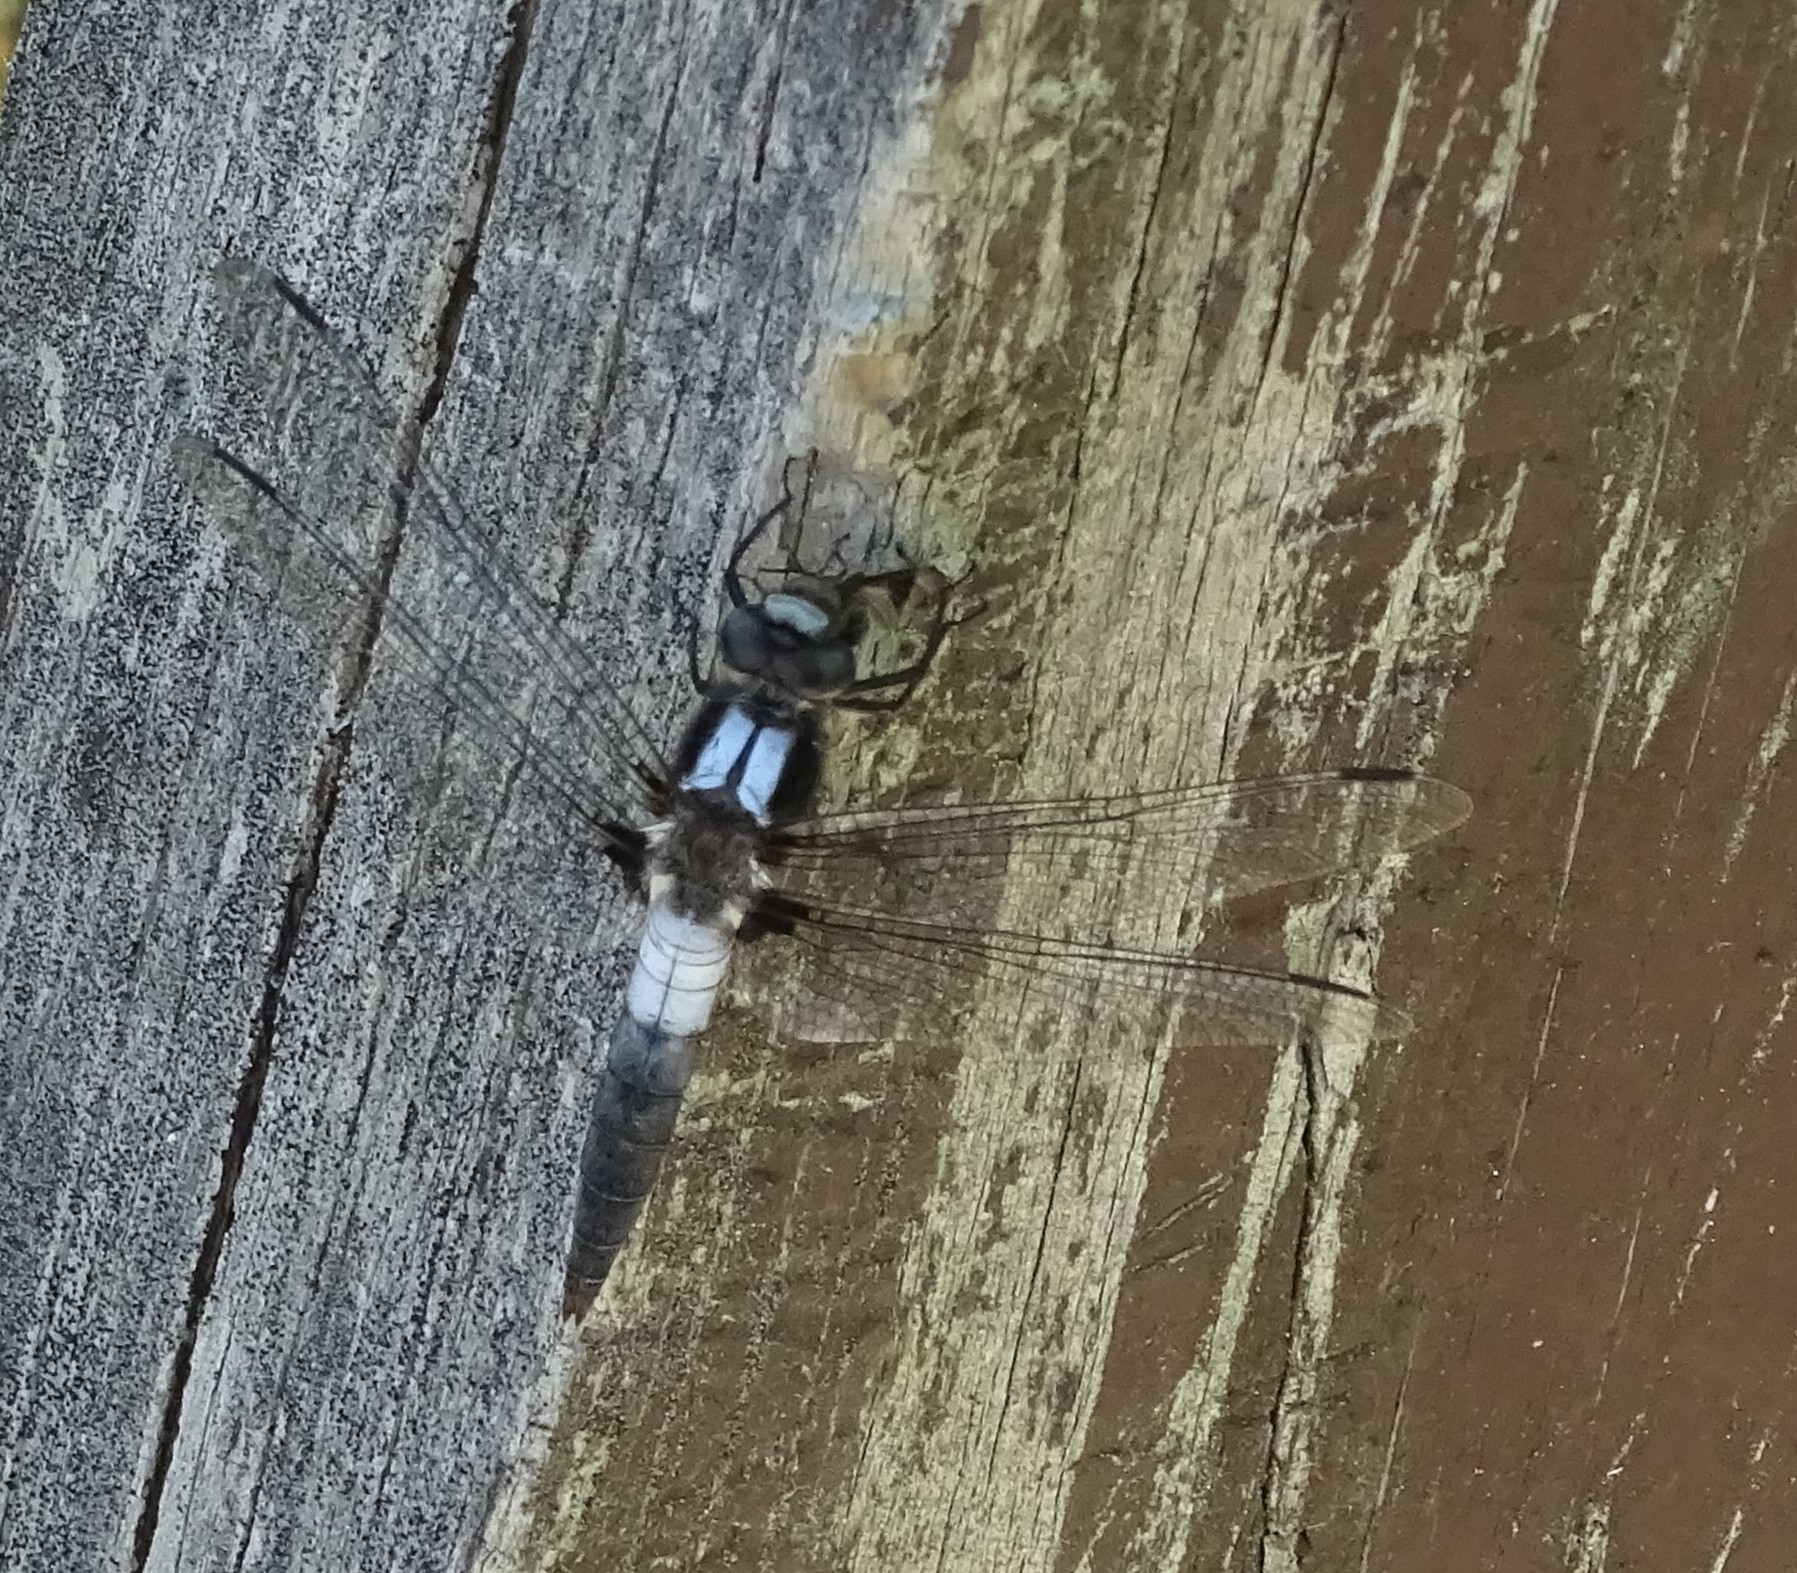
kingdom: Animalia
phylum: Arthropoda
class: Insecta
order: Odonata
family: Libellulidae
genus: Ladona
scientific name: Ladona julia
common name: Chalk-fronted corporal
